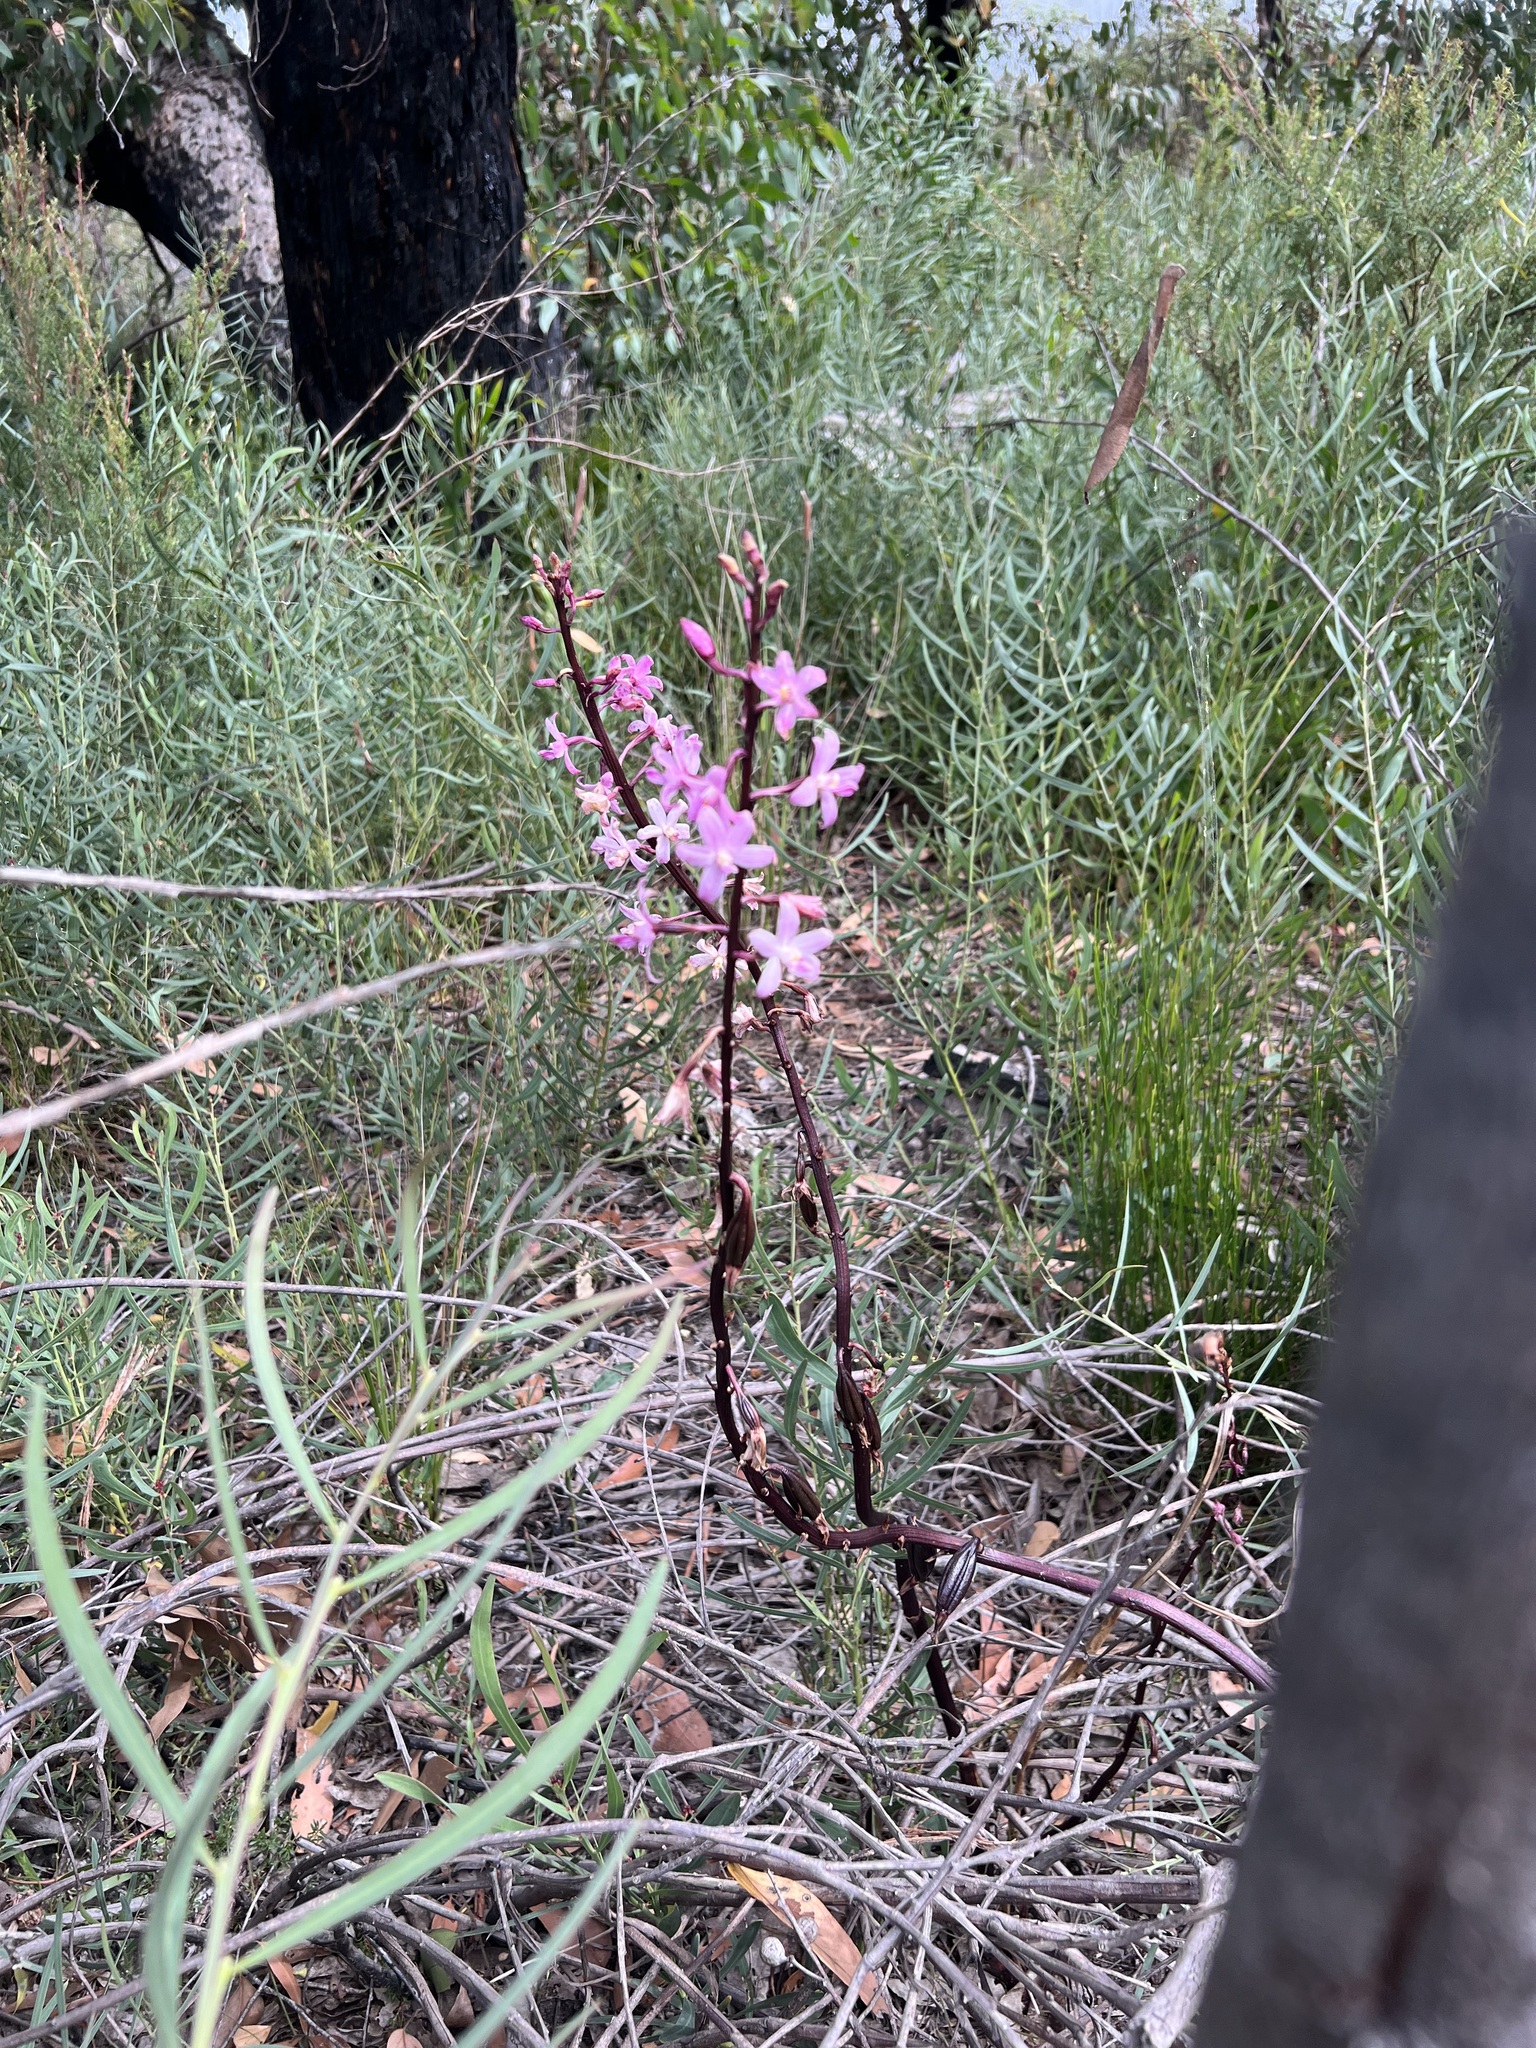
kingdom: Plantae
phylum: Tracheophyta
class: Liliopsida
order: Asparagales
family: Orchidaceae
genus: Dipodium
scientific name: Dipodium roseum
